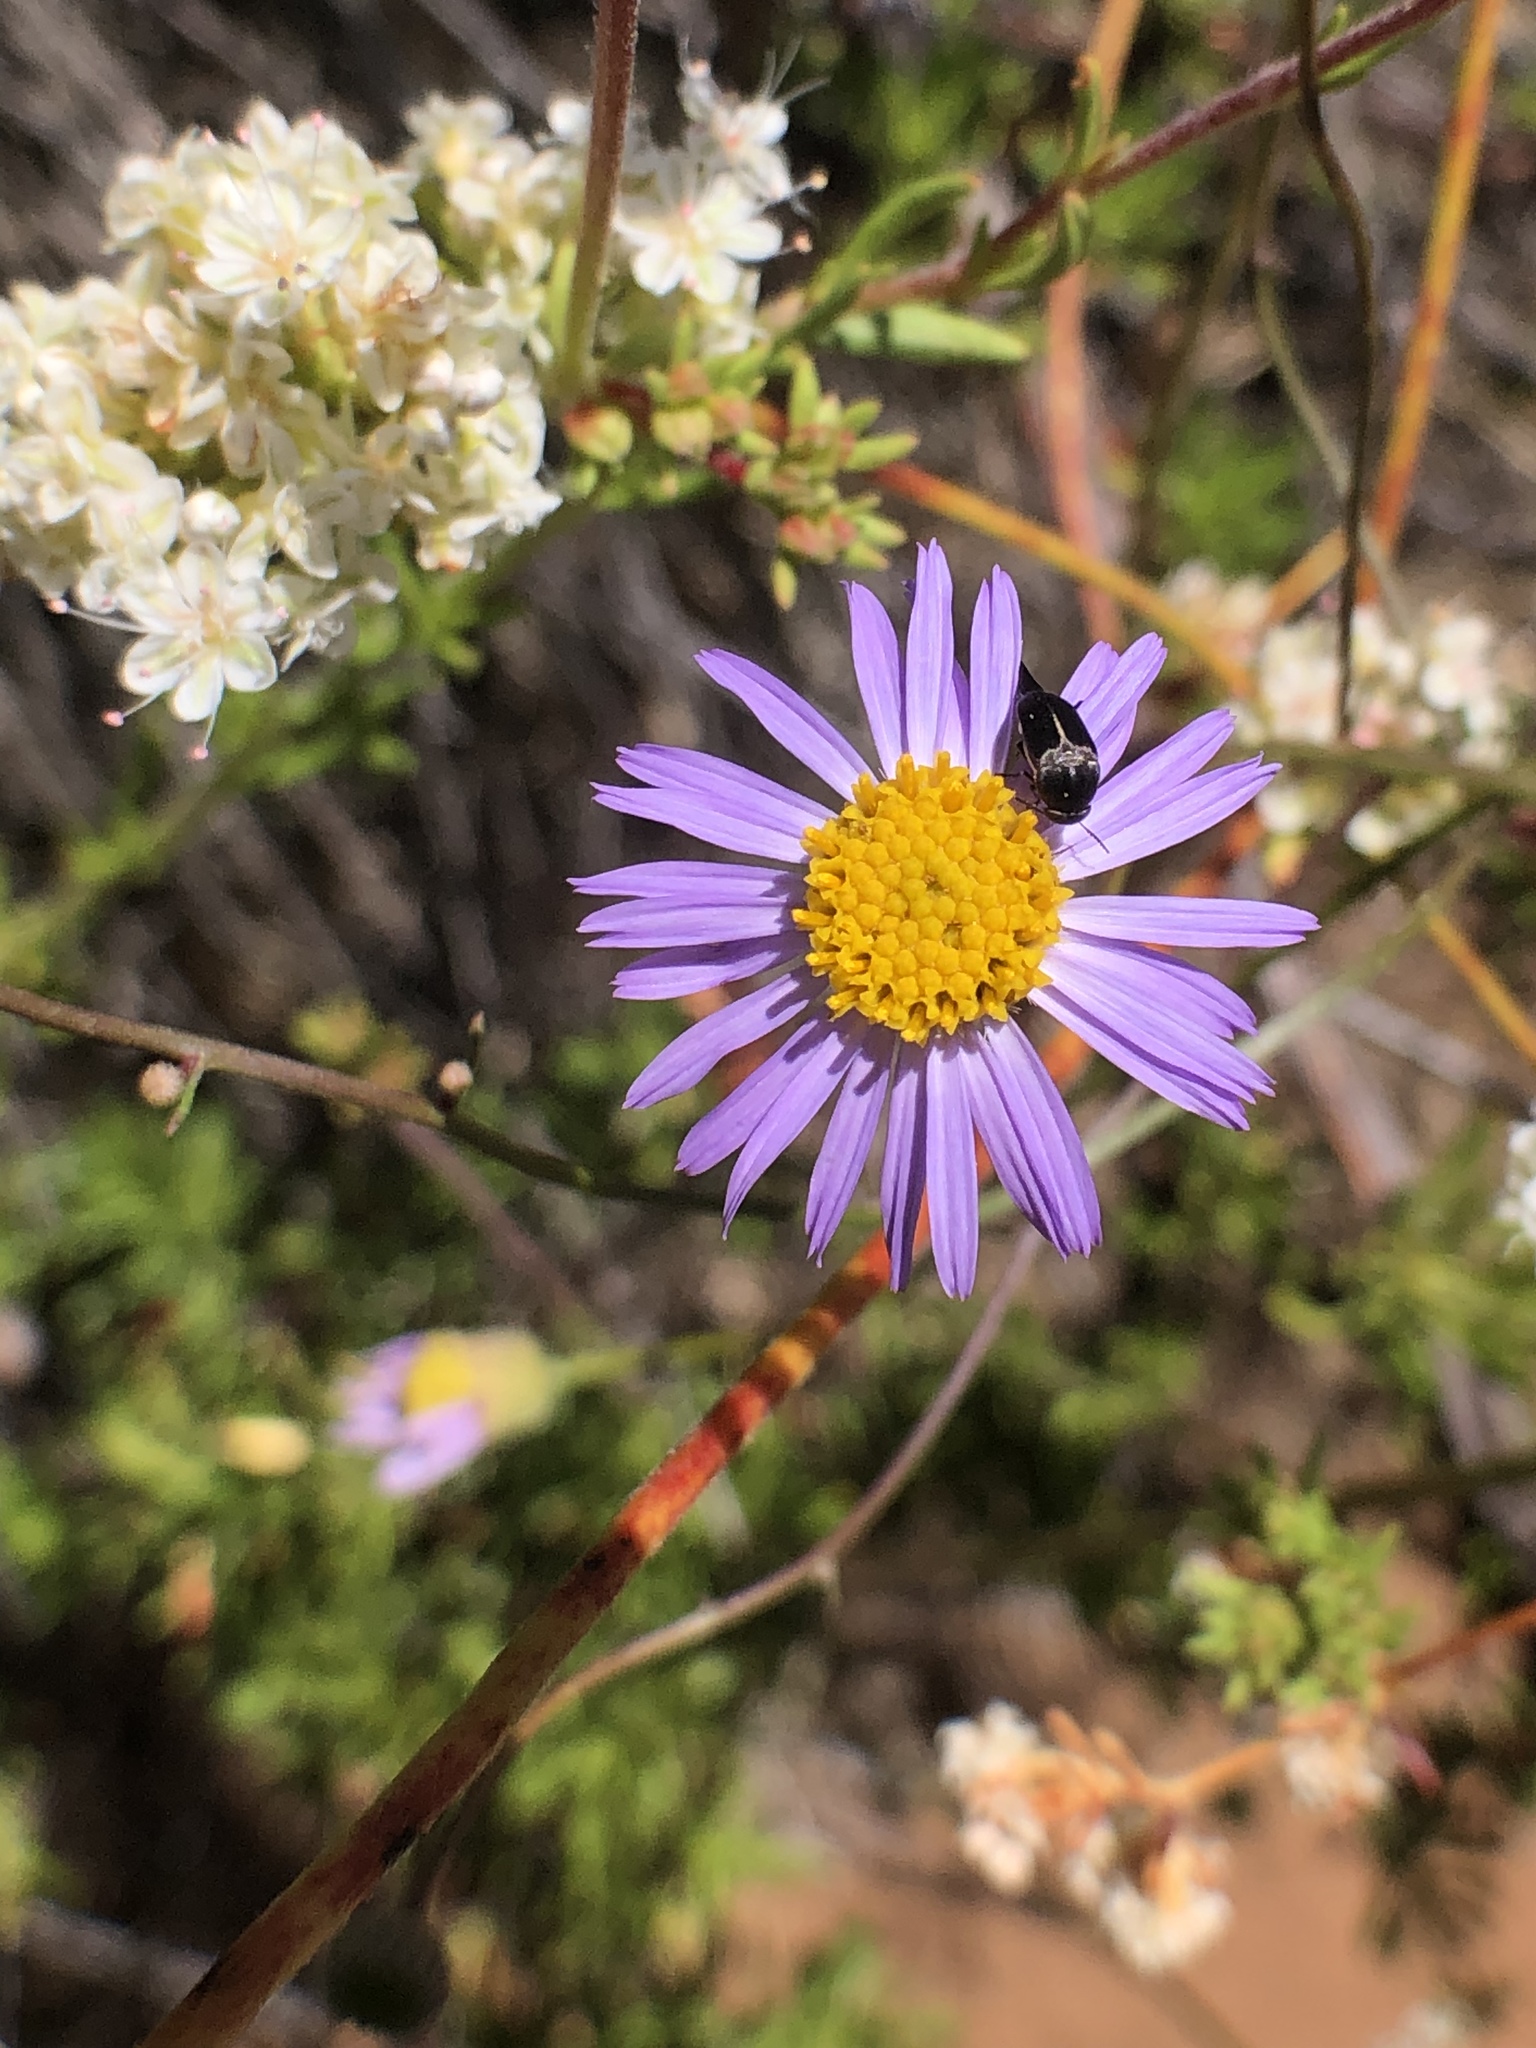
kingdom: Plantae
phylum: Tracheophyta
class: Magnoliopsida
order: Asterales
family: Asteraceae
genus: Erigeron
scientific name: Erigeron foliosus
